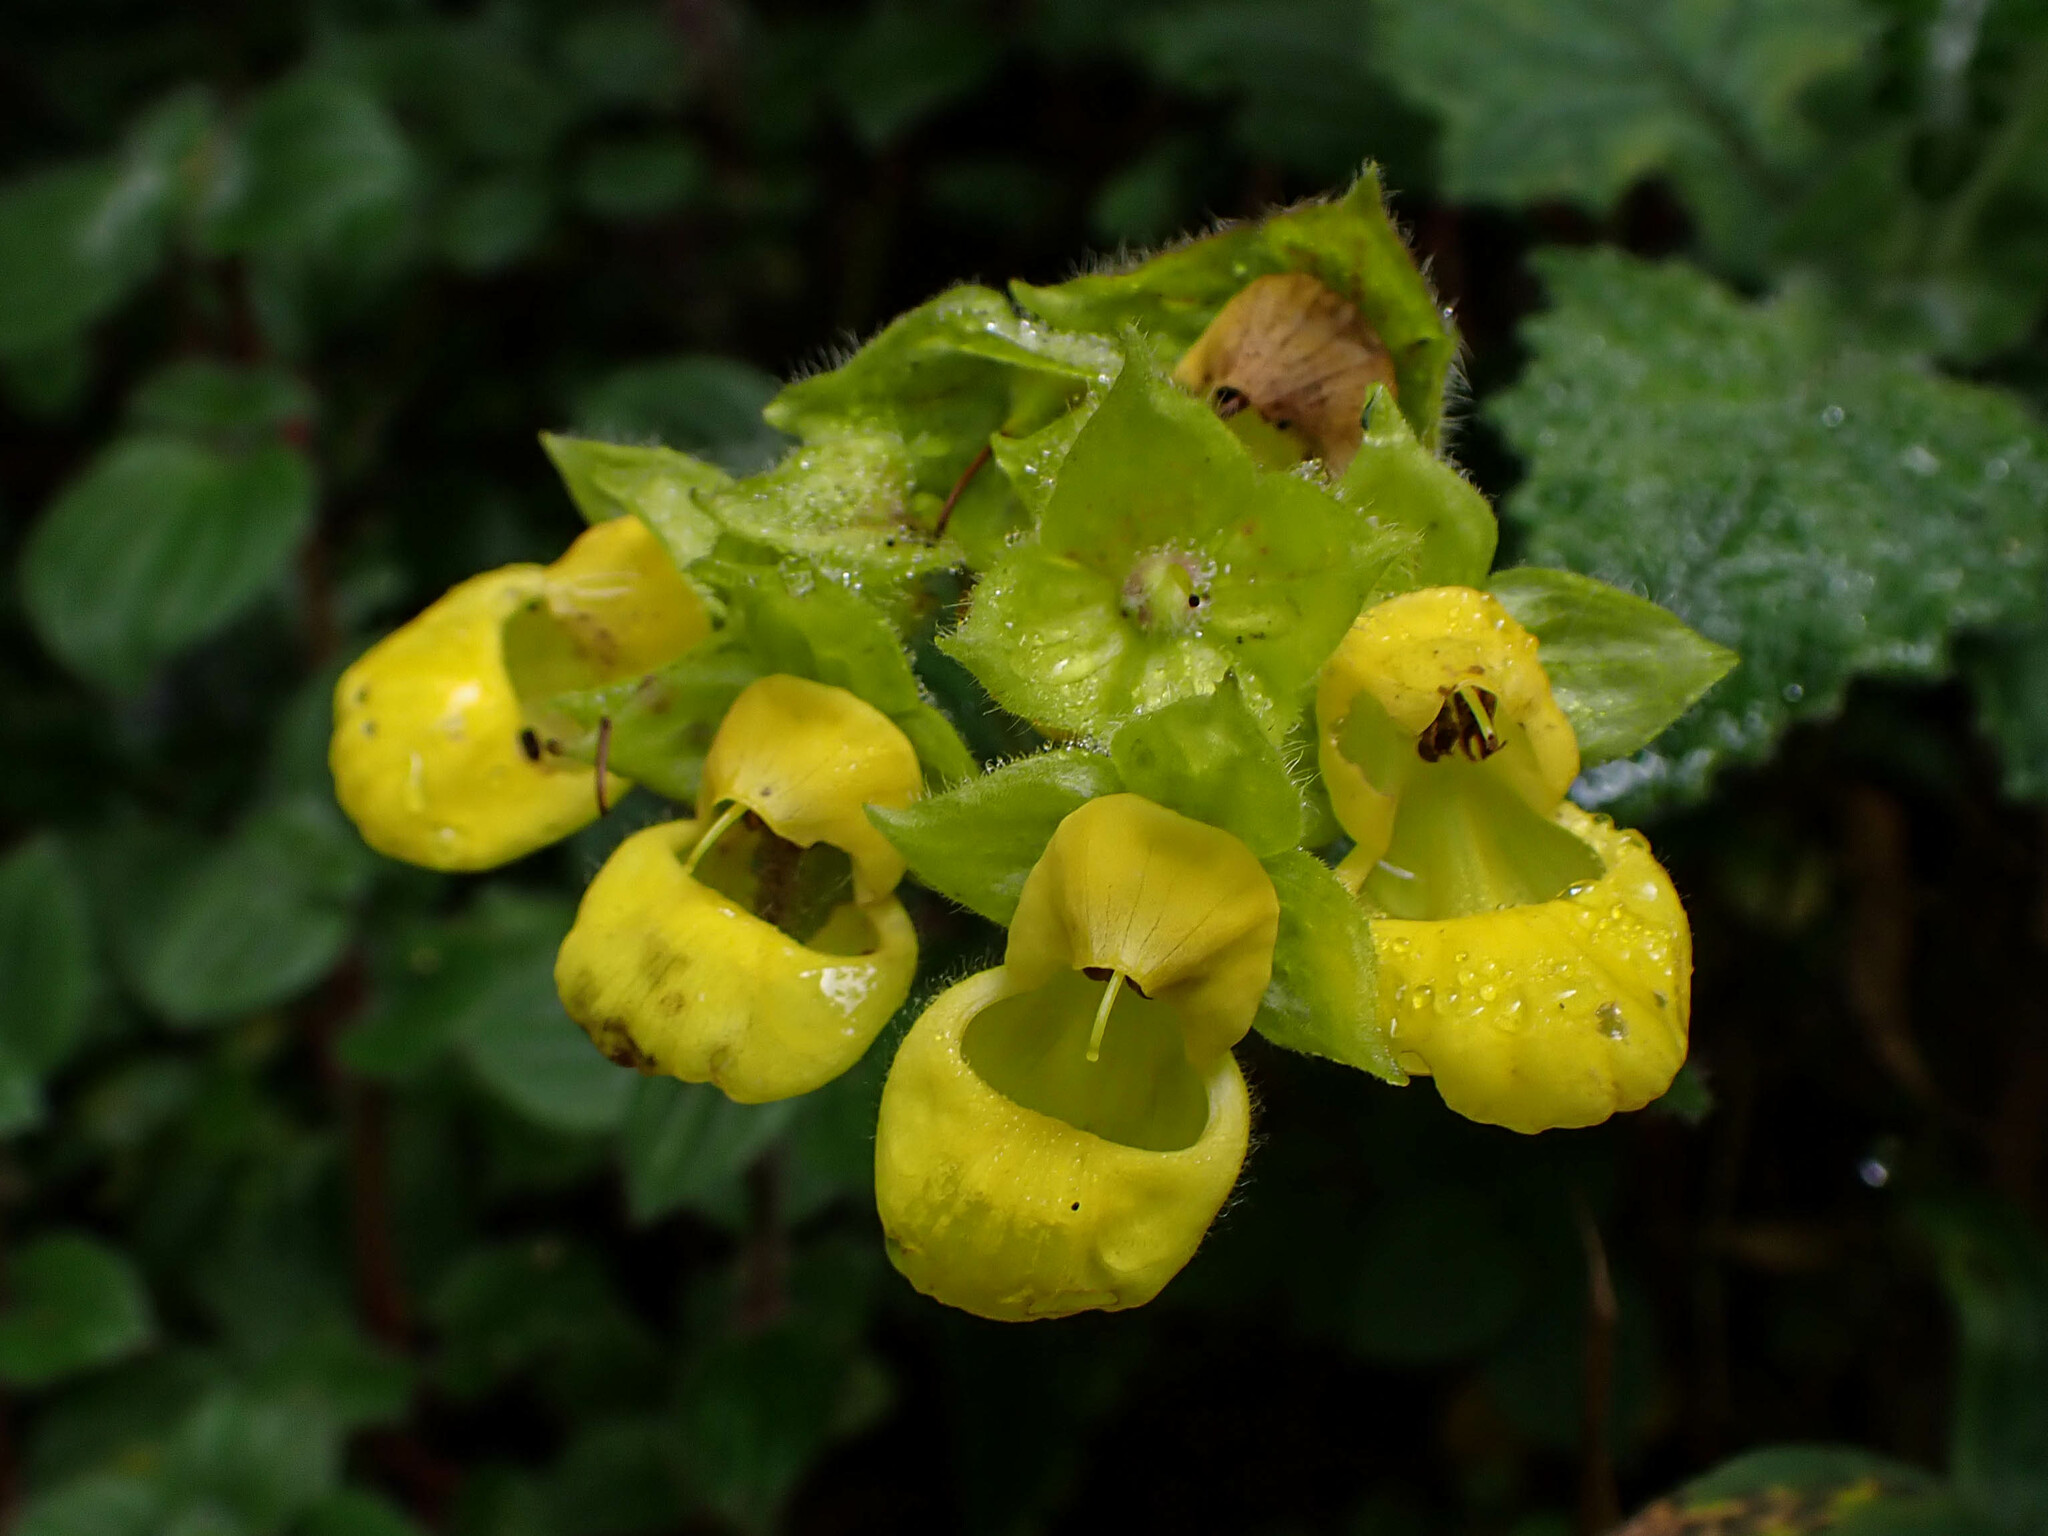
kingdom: Plantae
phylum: Tracheophyta
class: Magnoliopsida
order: Lamiales
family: Calceolariaceae
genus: Calceolaria
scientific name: Calceolaria perfoliata
